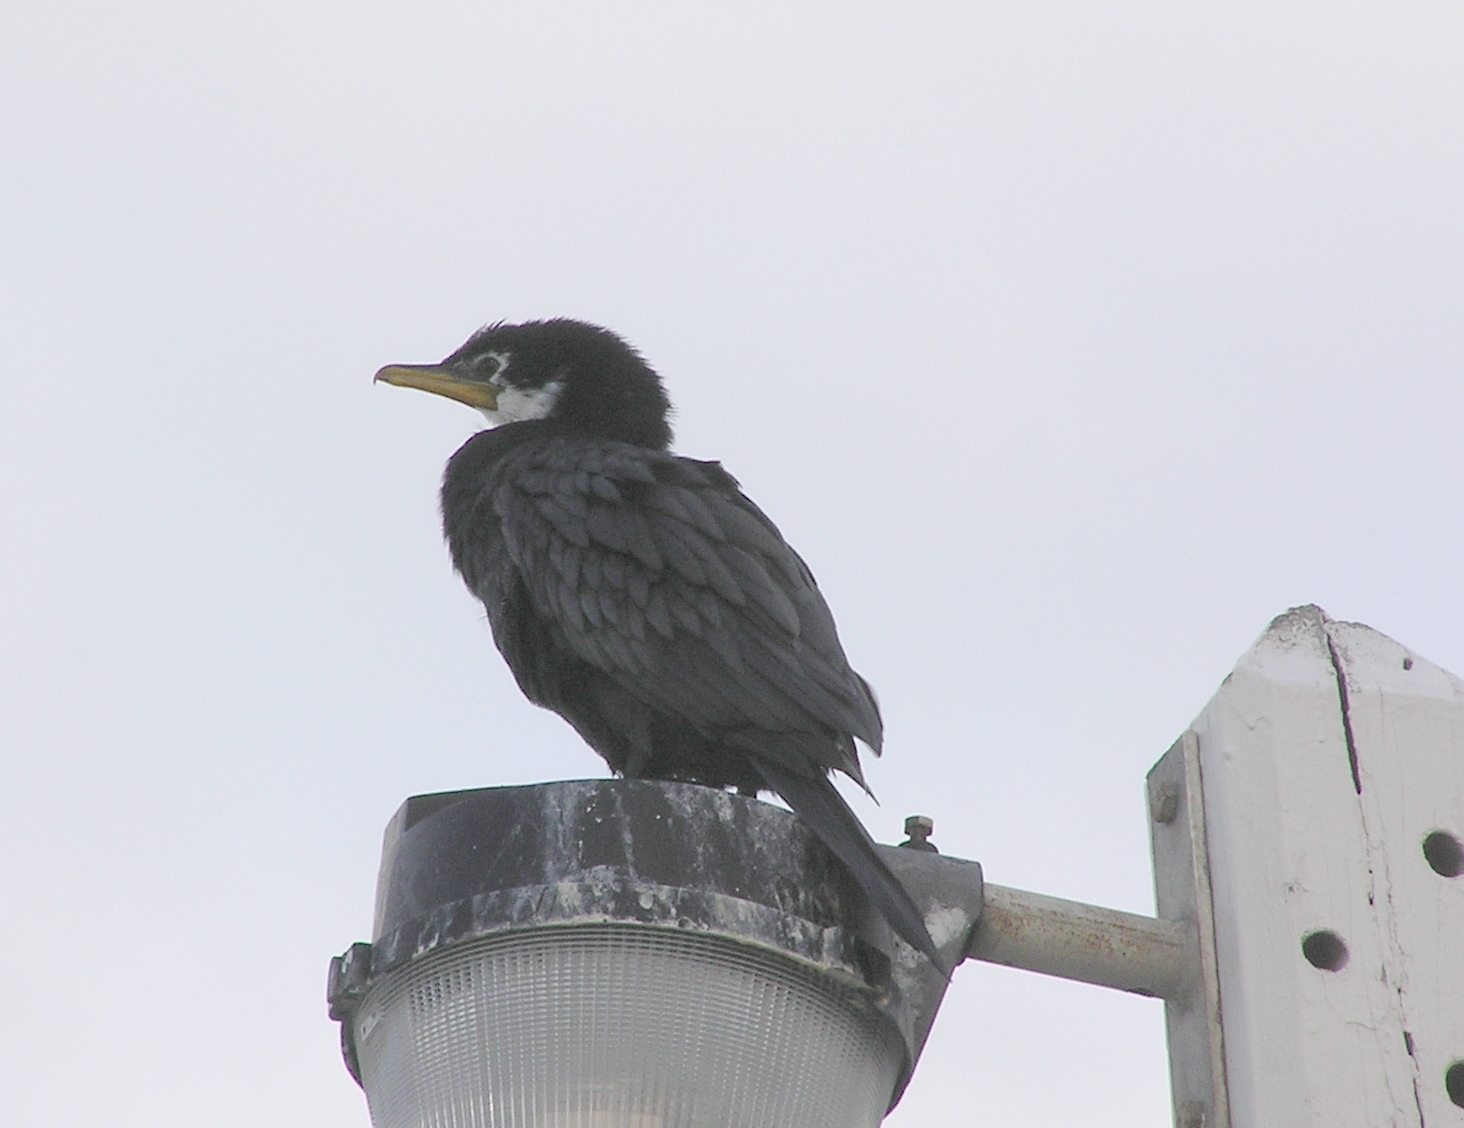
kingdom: Animalia
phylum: Chordata
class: Aves
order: Suliformes
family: Phalacrocoracidae
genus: Microcarbo
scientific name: Microcarbo melanoleucos
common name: Little pied cormorant
